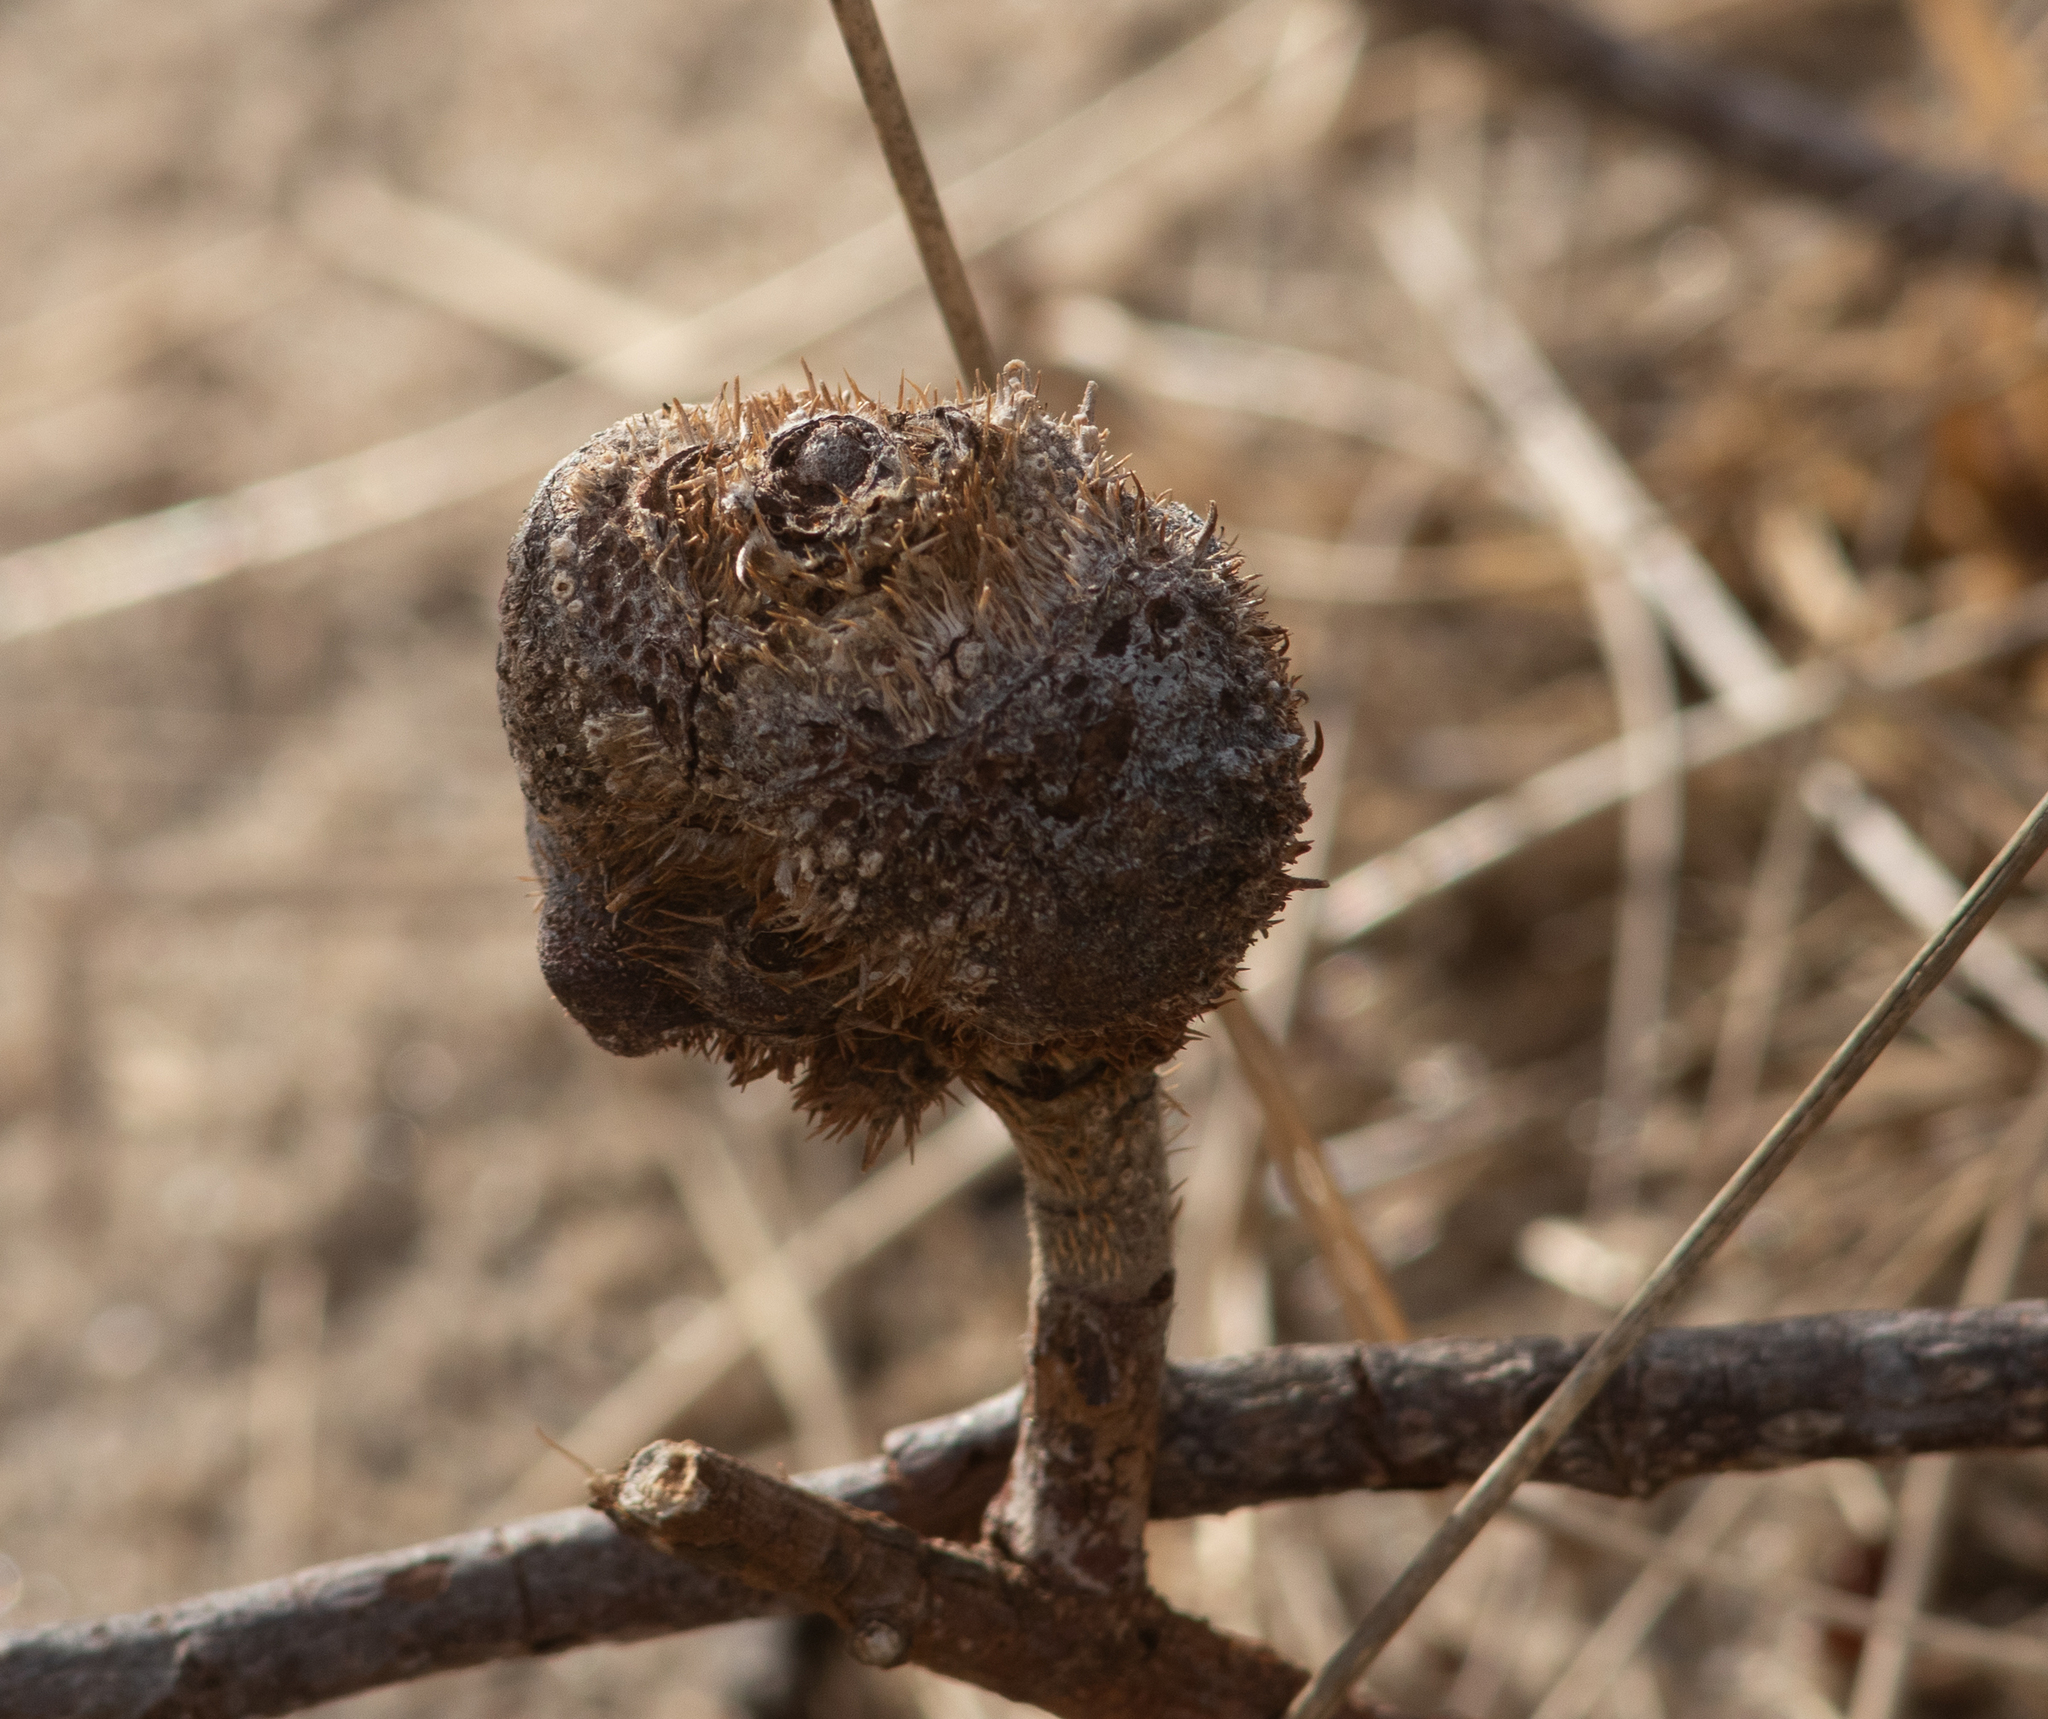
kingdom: Animalia
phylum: Arthropoda
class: Insecta
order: Hymenoptera
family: Cynipidae
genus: Diplolepis
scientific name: Diplolepis spinosa
